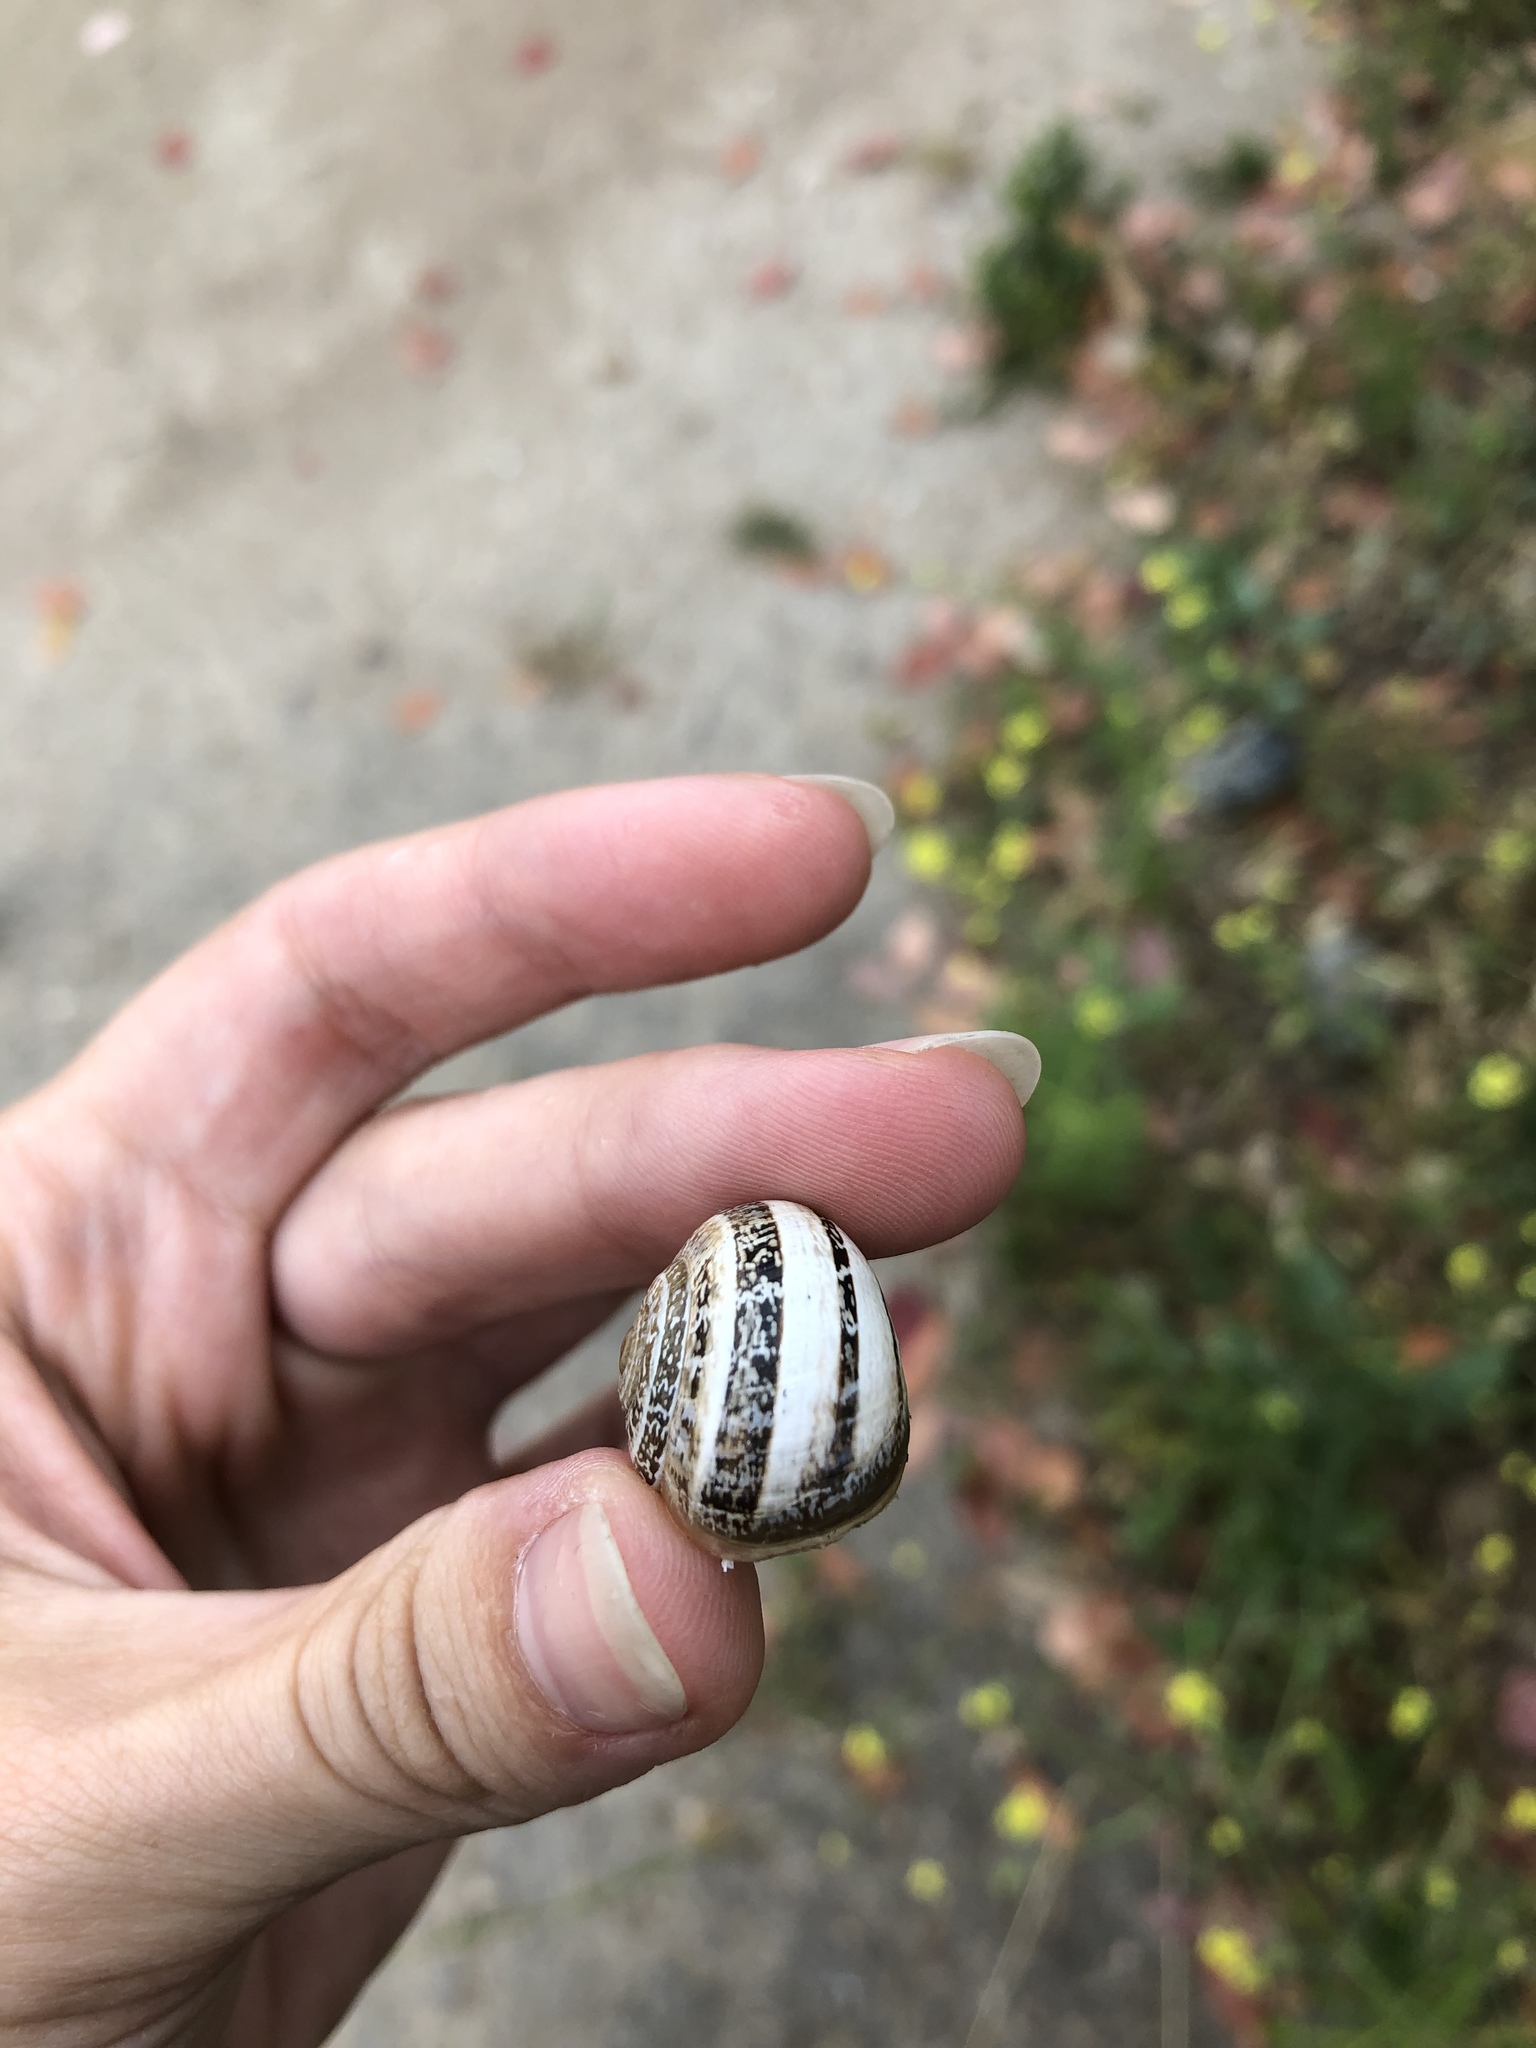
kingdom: Animalia
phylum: Mollusca
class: Gastropoda
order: Stylommatophora
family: Helicidae
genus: Otala
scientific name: Otala lactea
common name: Milk snail
